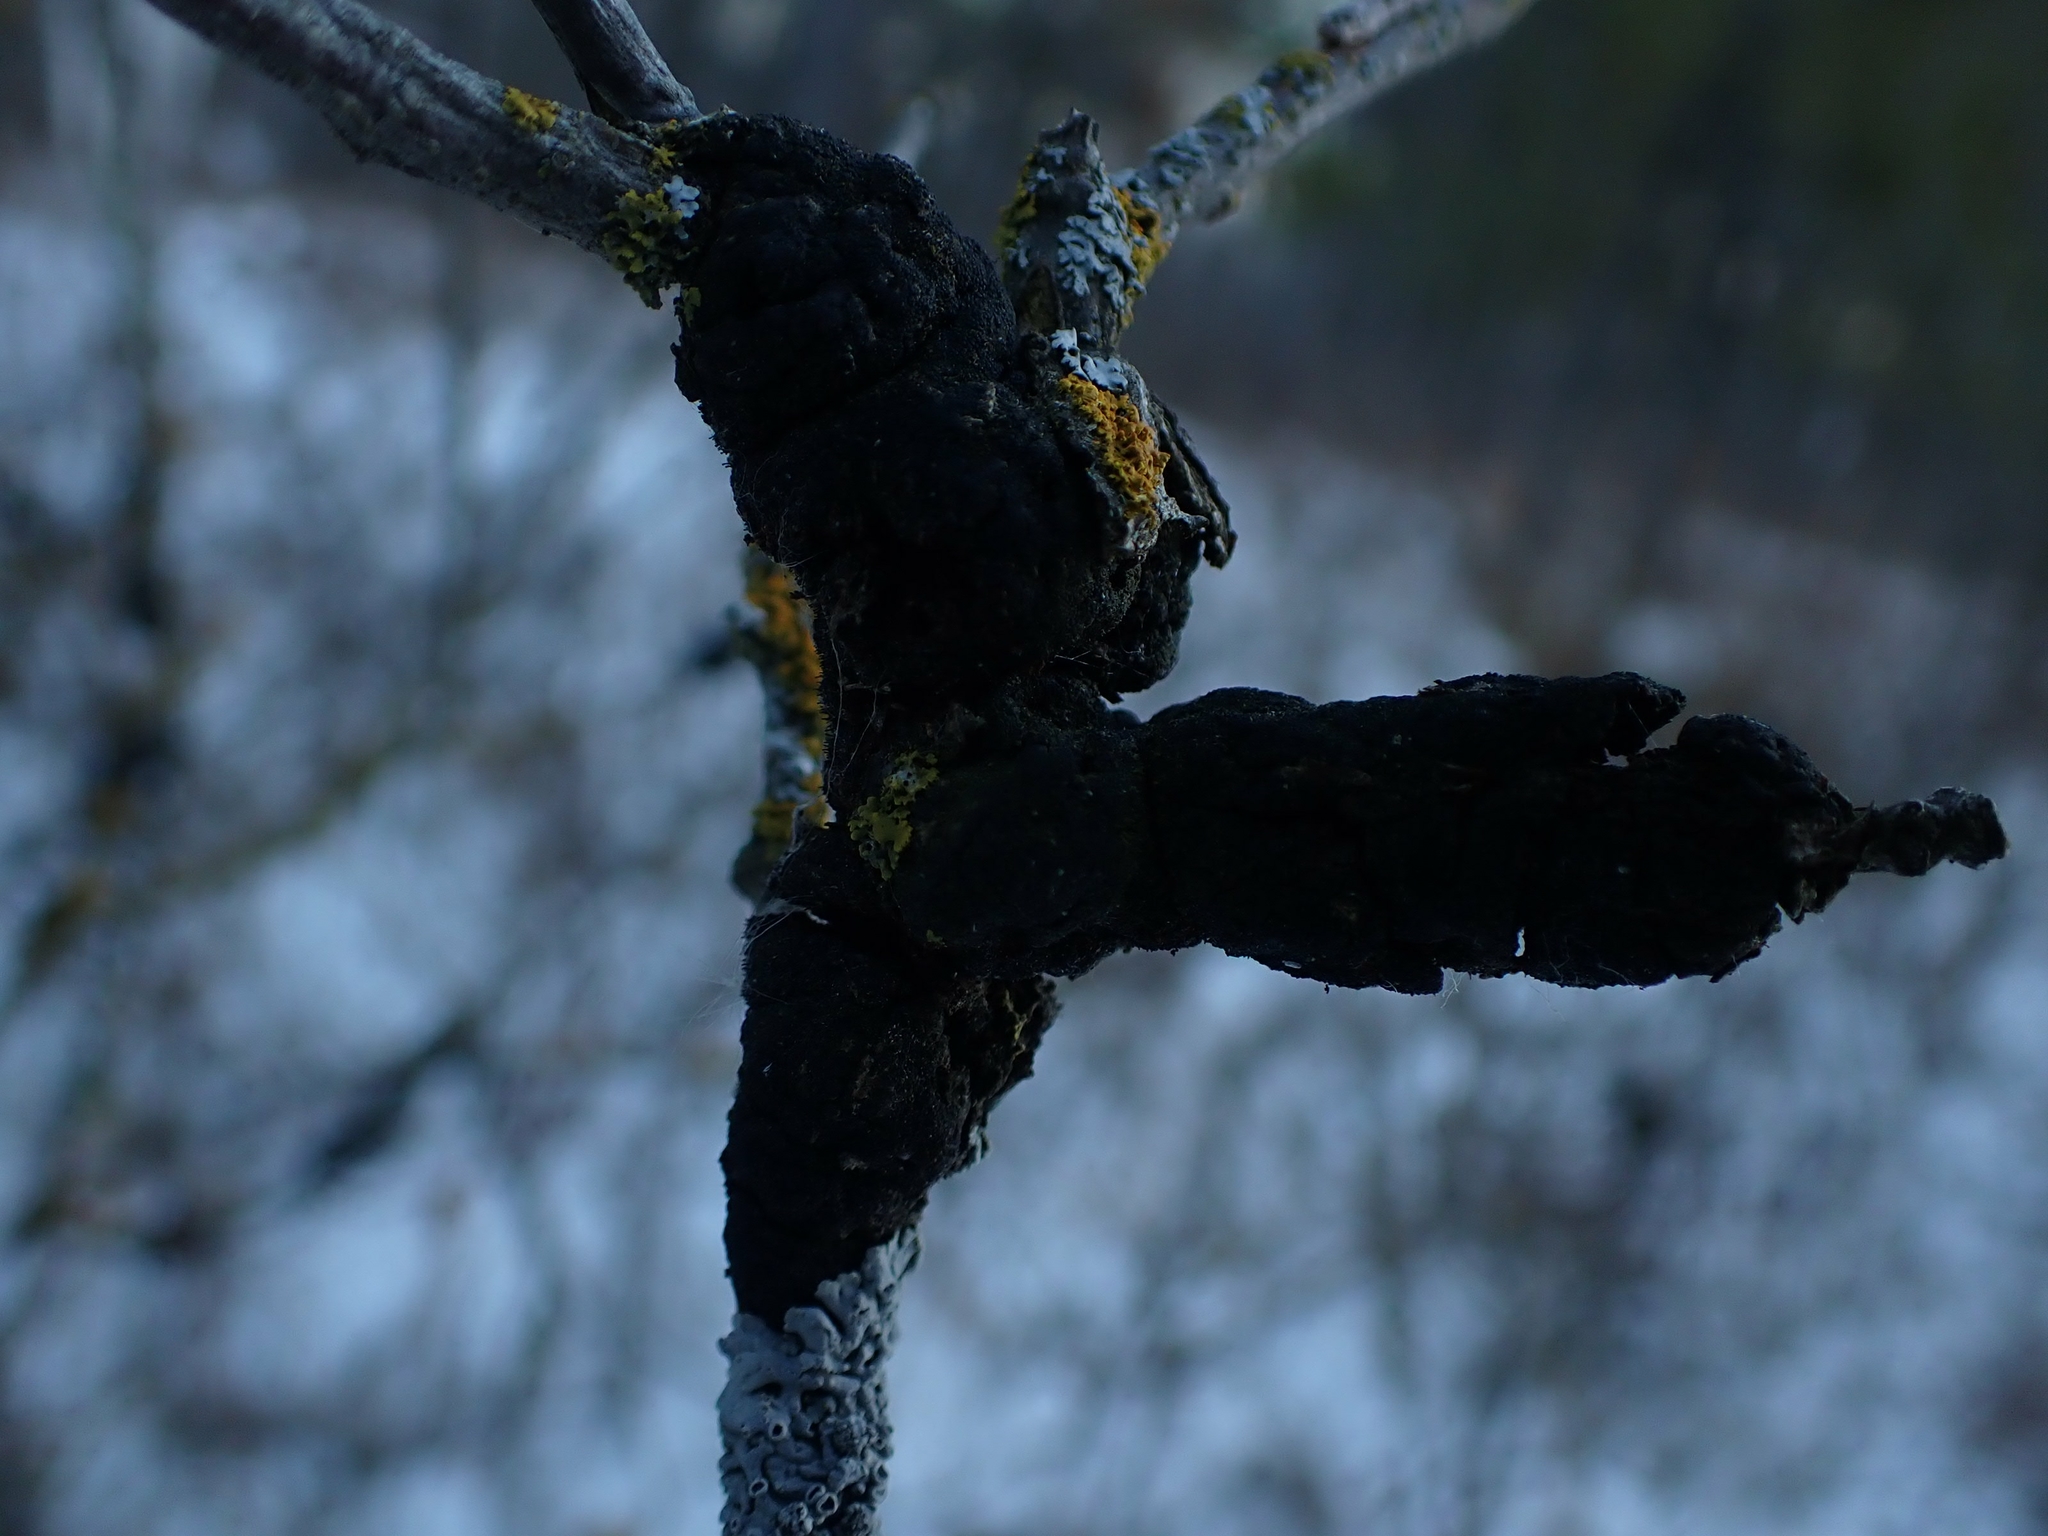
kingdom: Fungi
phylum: Ascomycota
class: Dothideomycetes
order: Venturiales
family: Venturiaceae
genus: Apiosporina
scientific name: Apiosporina morbosa
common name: Black knot
